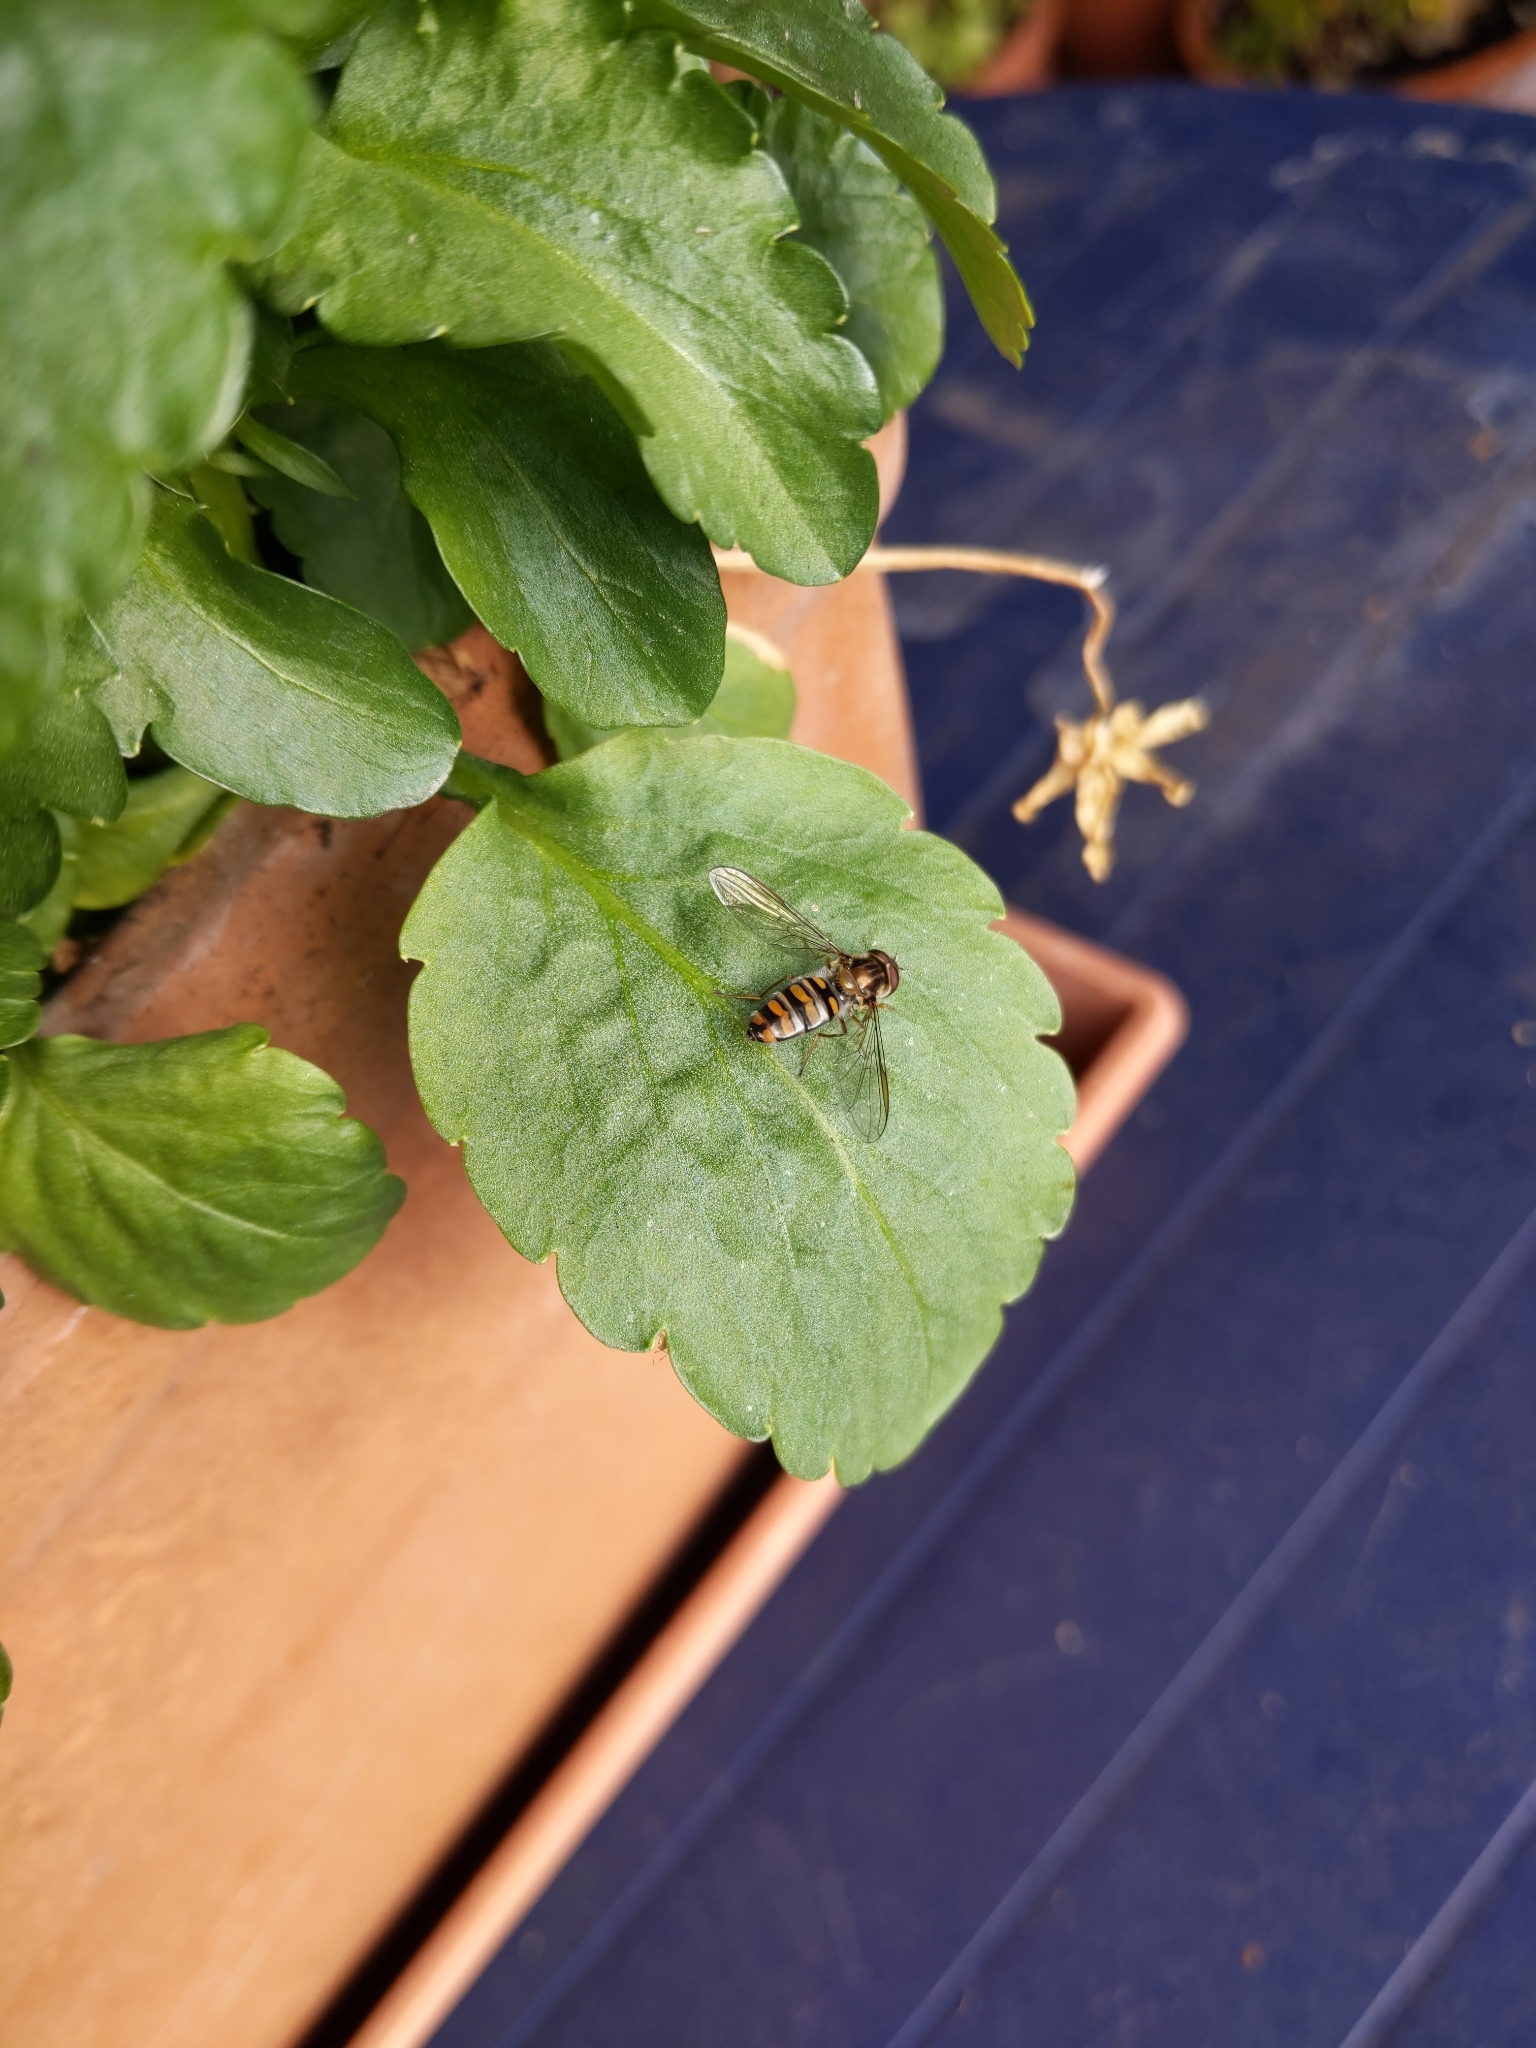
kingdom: Animalia
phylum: Arthropoda
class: Insecta
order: Diptera
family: Syrphidae
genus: Episyrphus
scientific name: Episyrphus balteatus
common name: Marmalade hoverfly
